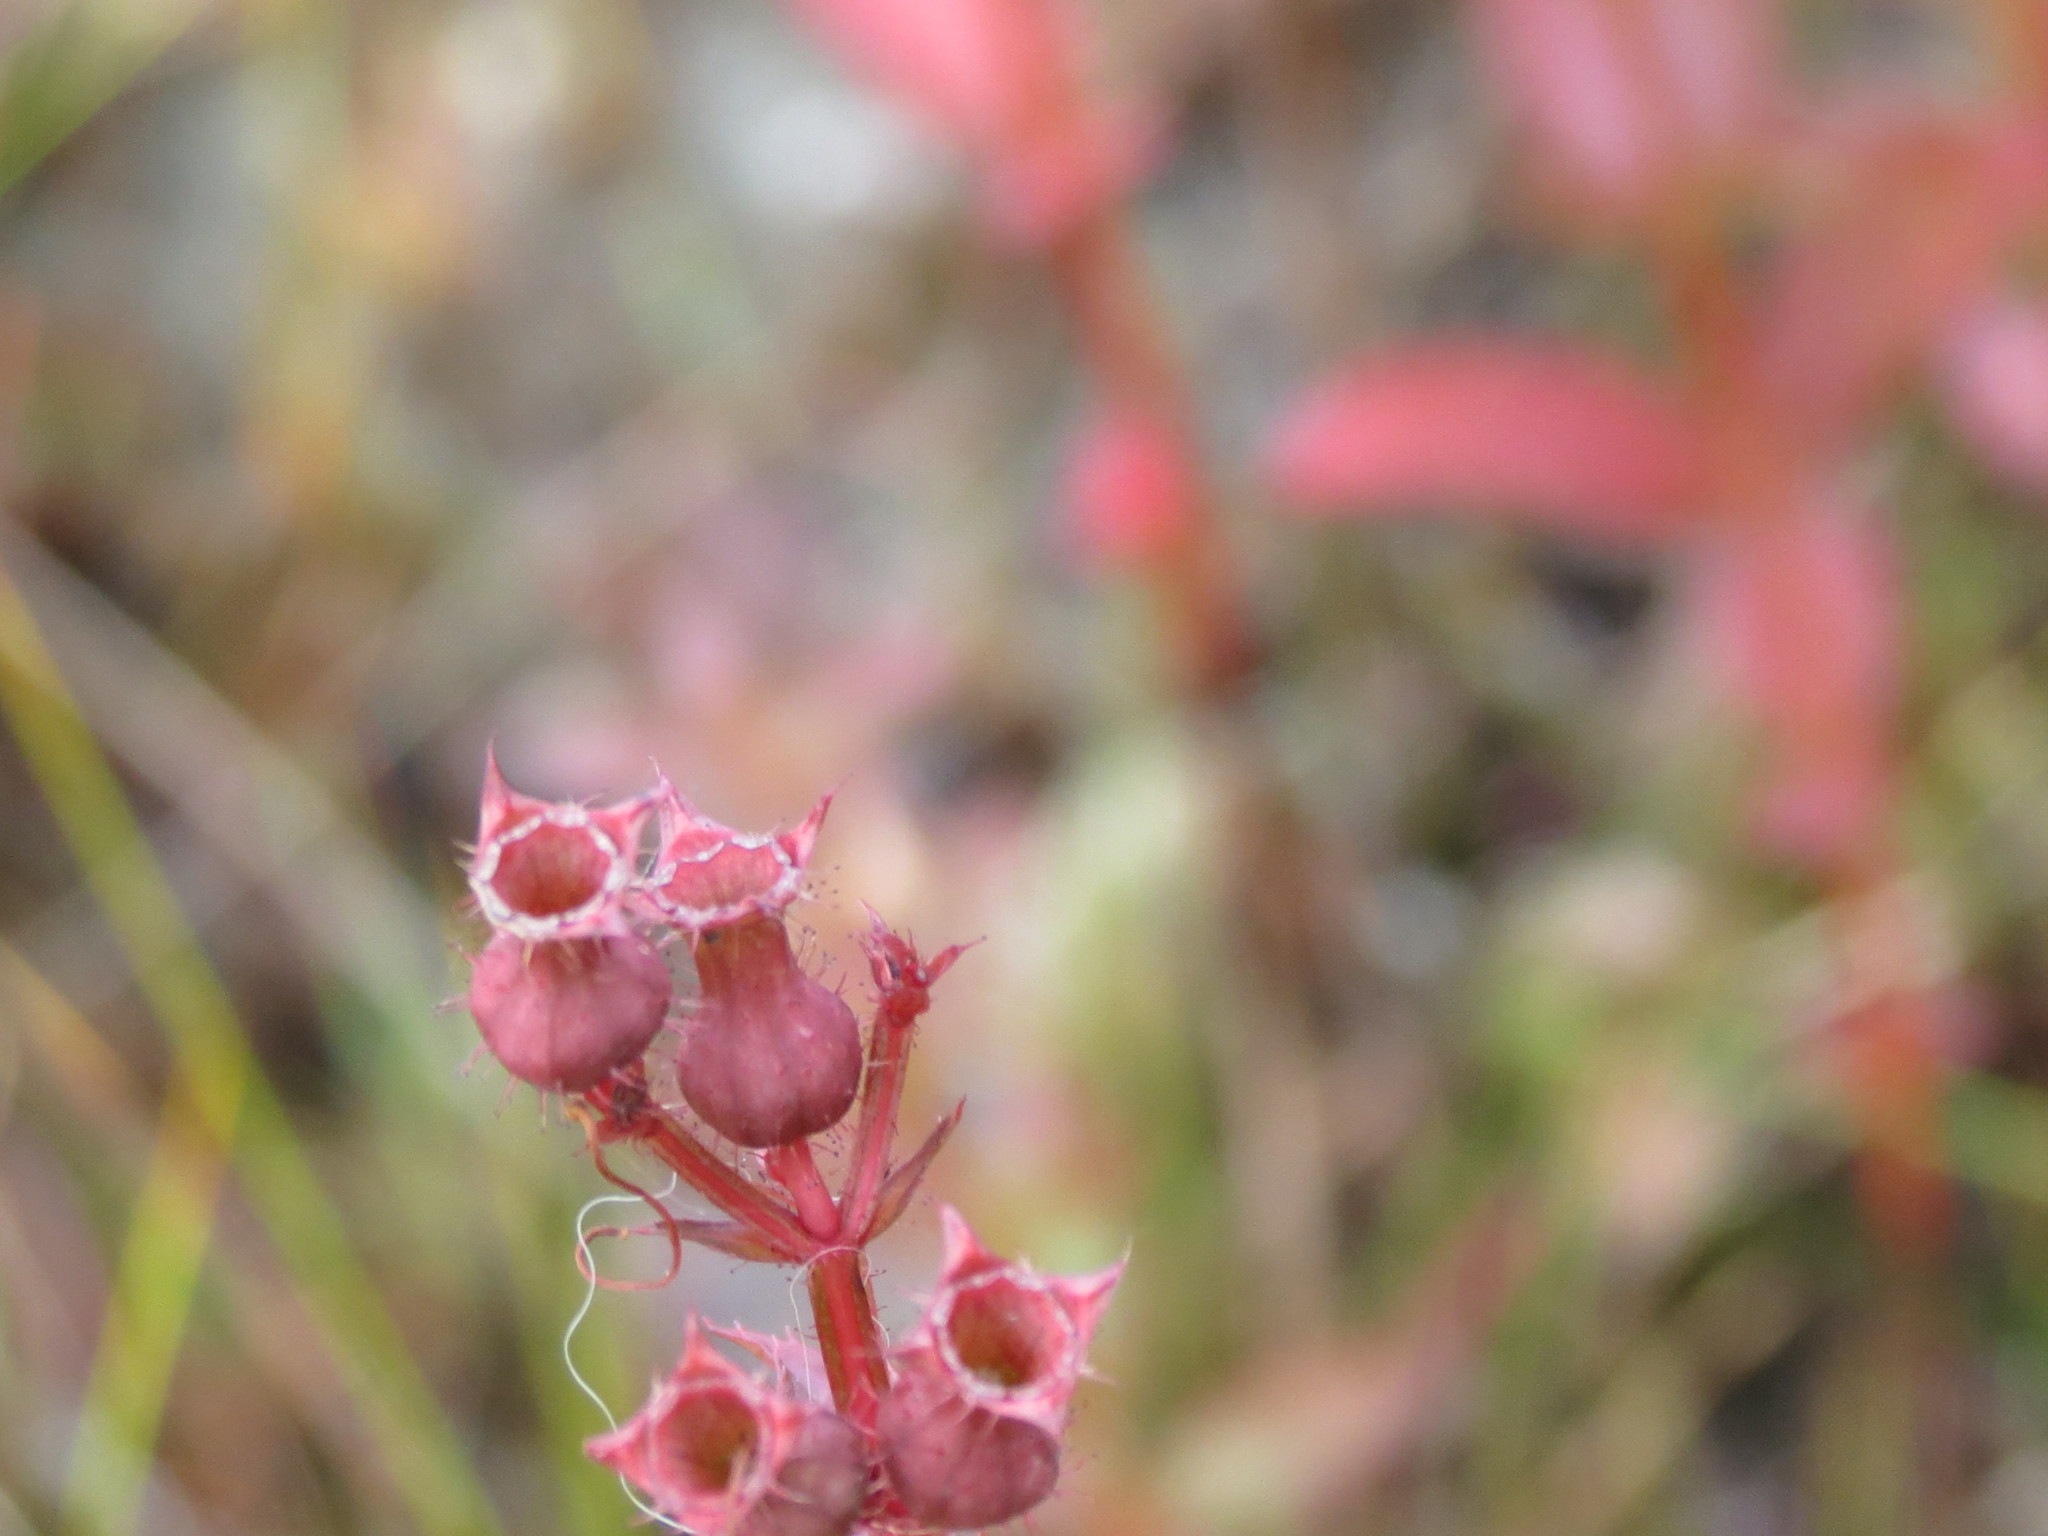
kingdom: Plantae
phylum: Tracheophyta
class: Magnoliopsida
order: Myrtales
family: Melastomataceae
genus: Rhexia
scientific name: Rhexia virginica
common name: Common meadow beauty
